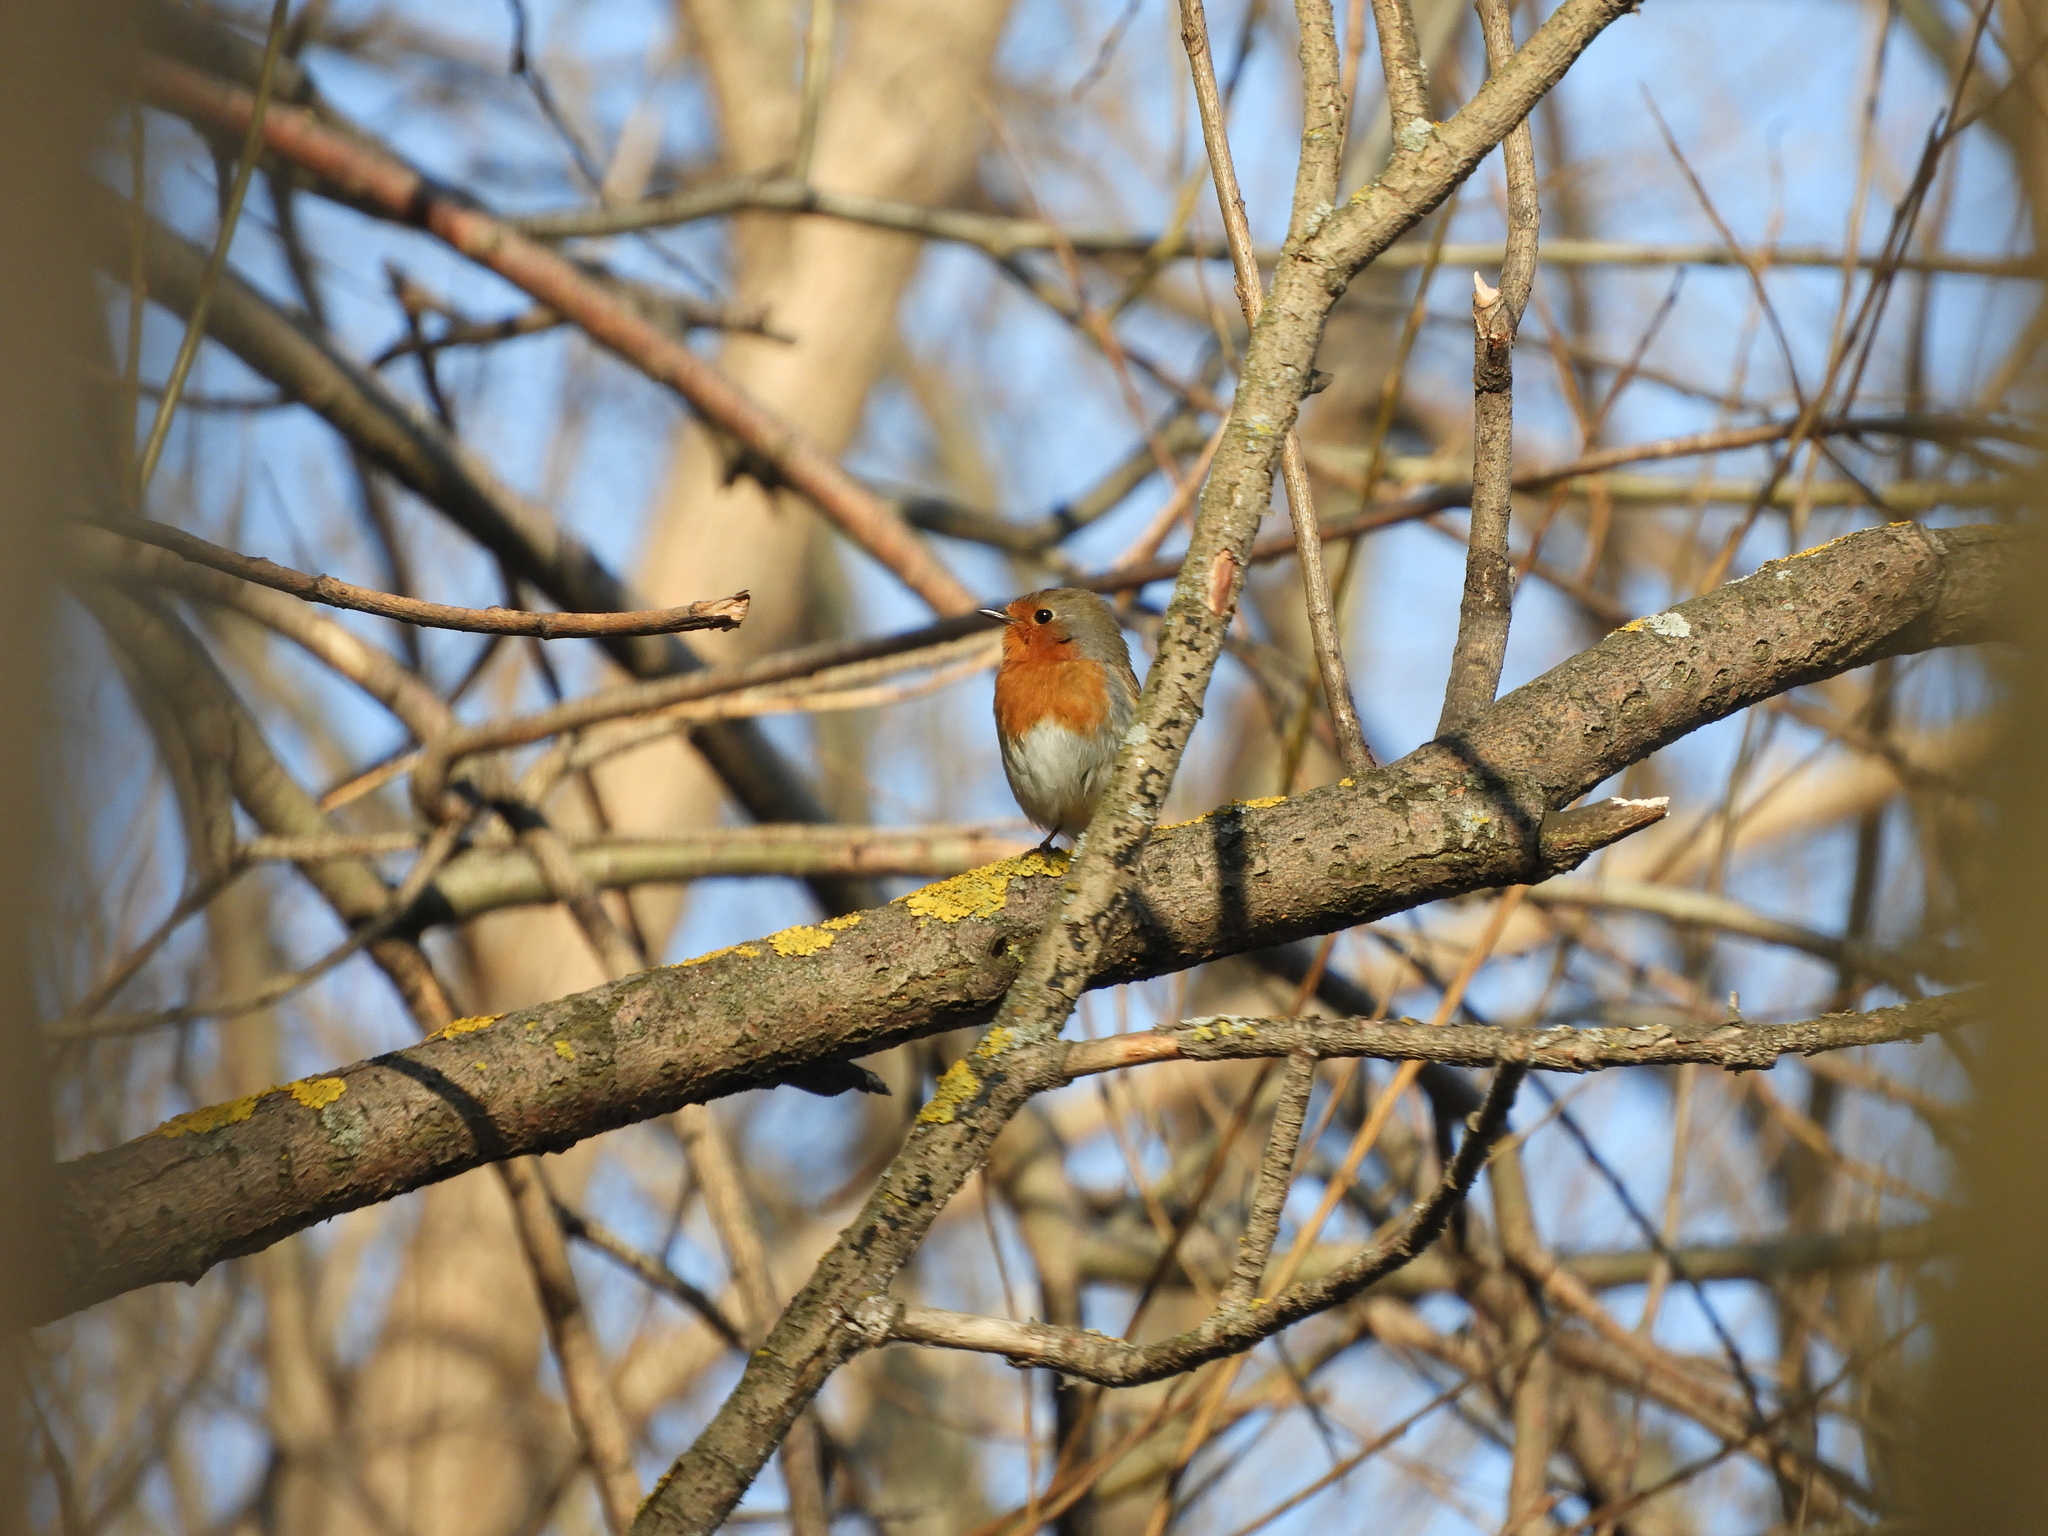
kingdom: Animalia
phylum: Chordata
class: Aves
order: Passeriformes
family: Muscicapidae
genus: Erithacus
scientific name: Erithacus rubecula
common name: European robin
